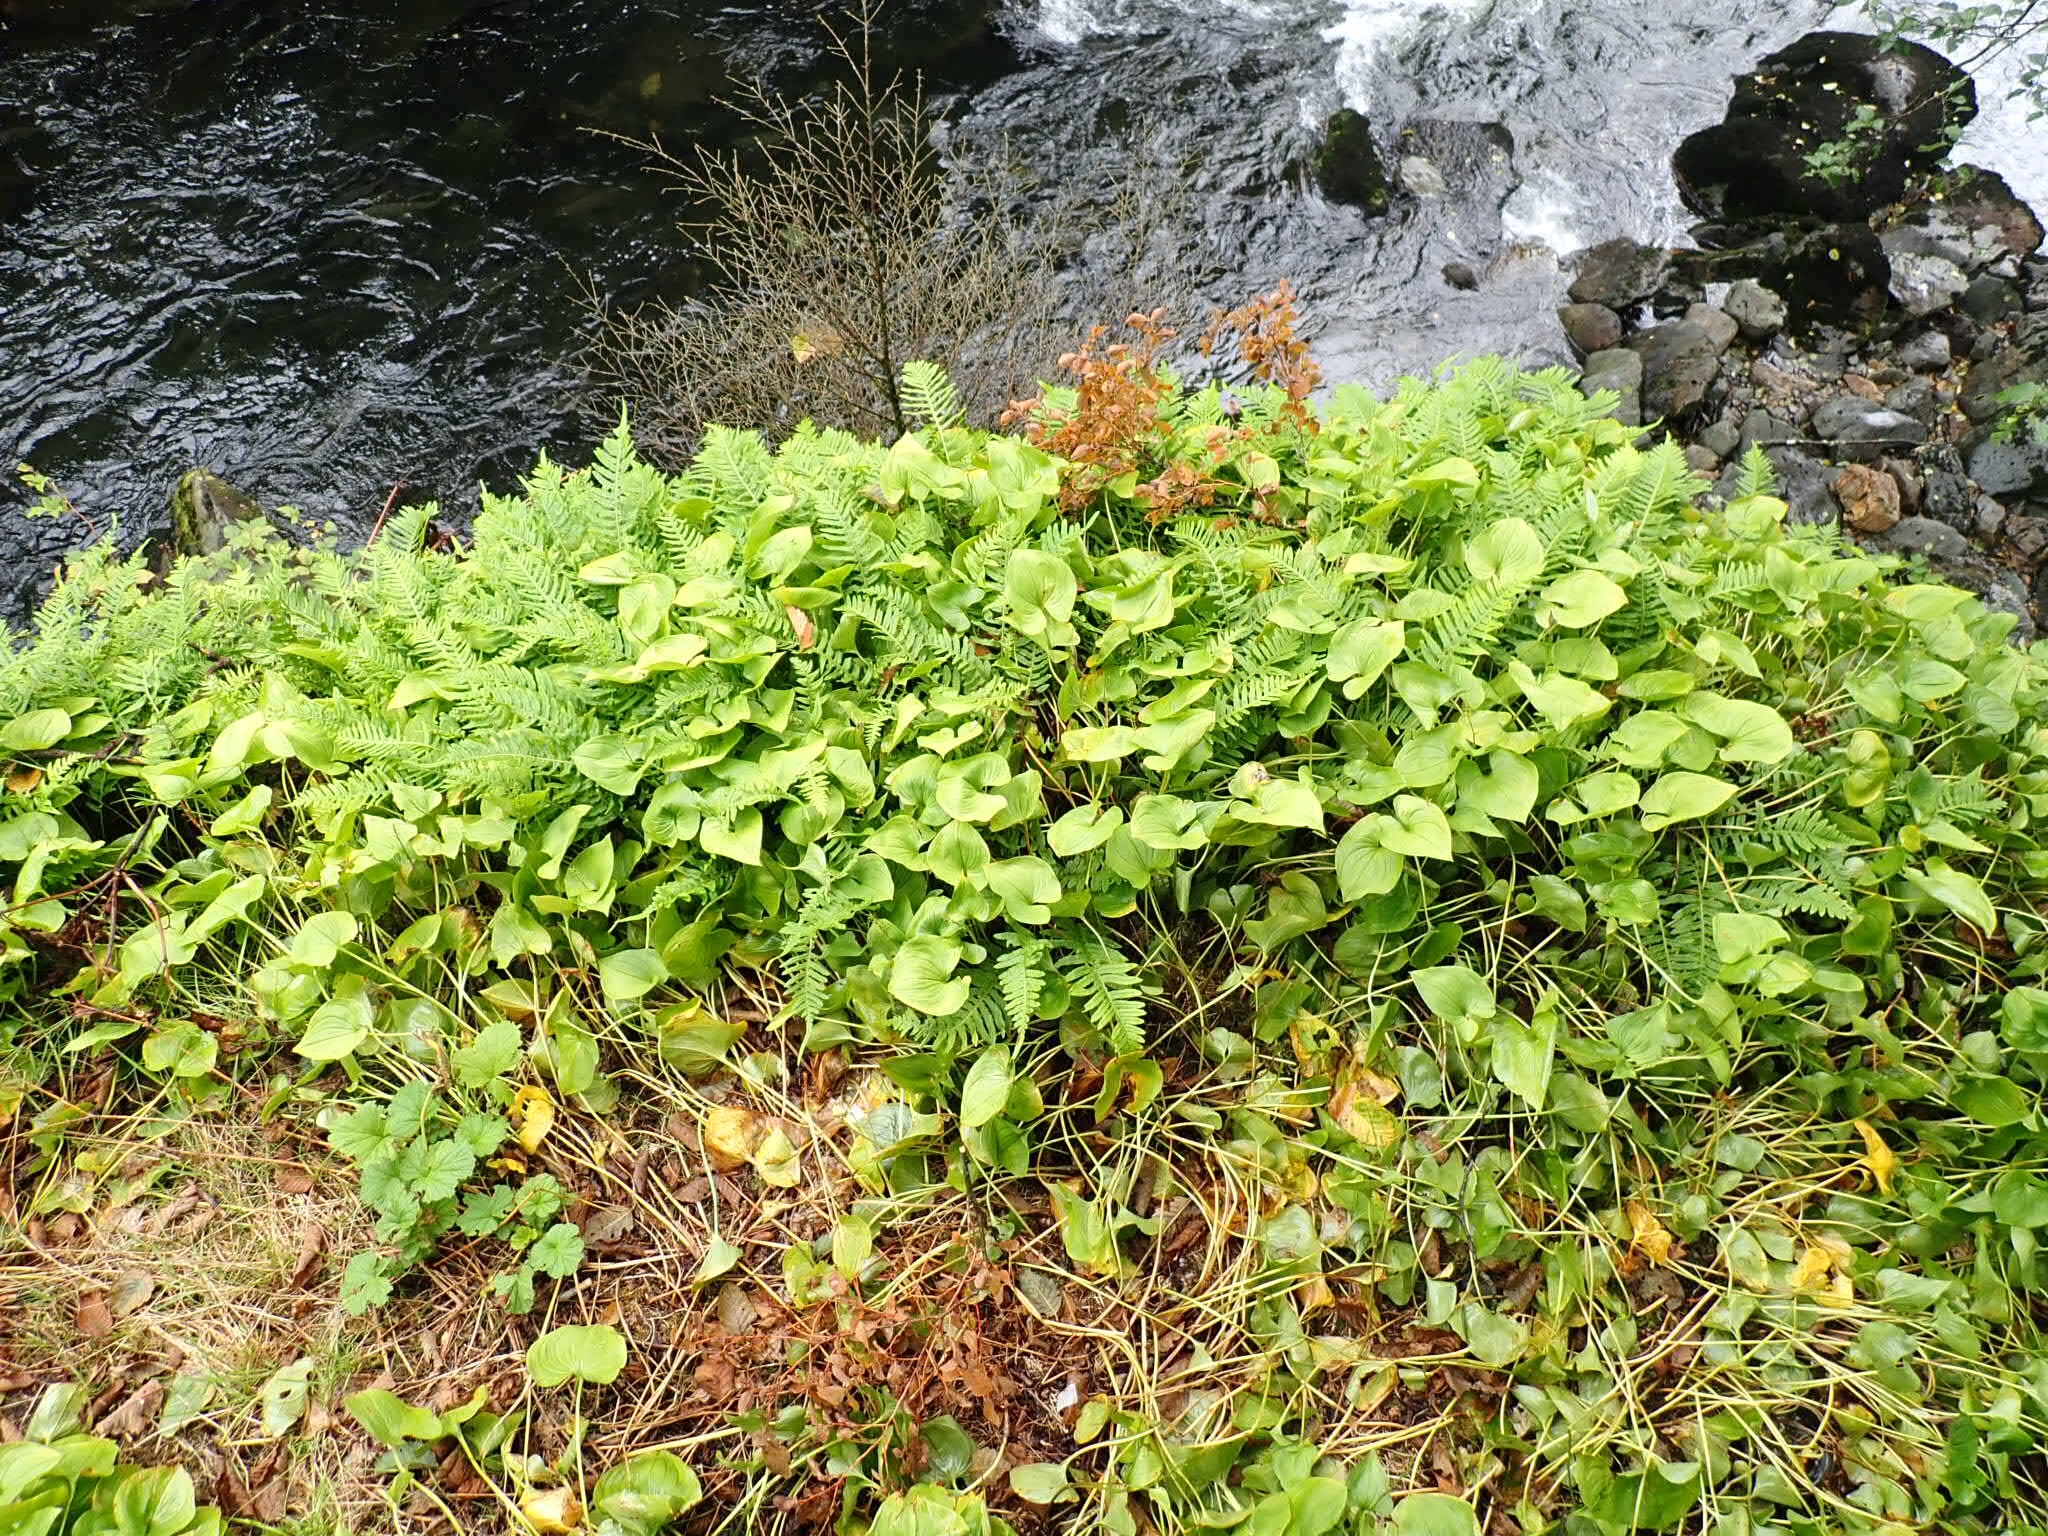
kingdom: Plantae
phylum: Tracheophyta
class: Liliopsida
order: Asparagales
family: Asparagaceae
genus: Maianthemum
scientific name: Maianthemum dilatatum
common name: False lily-of-the-valley
